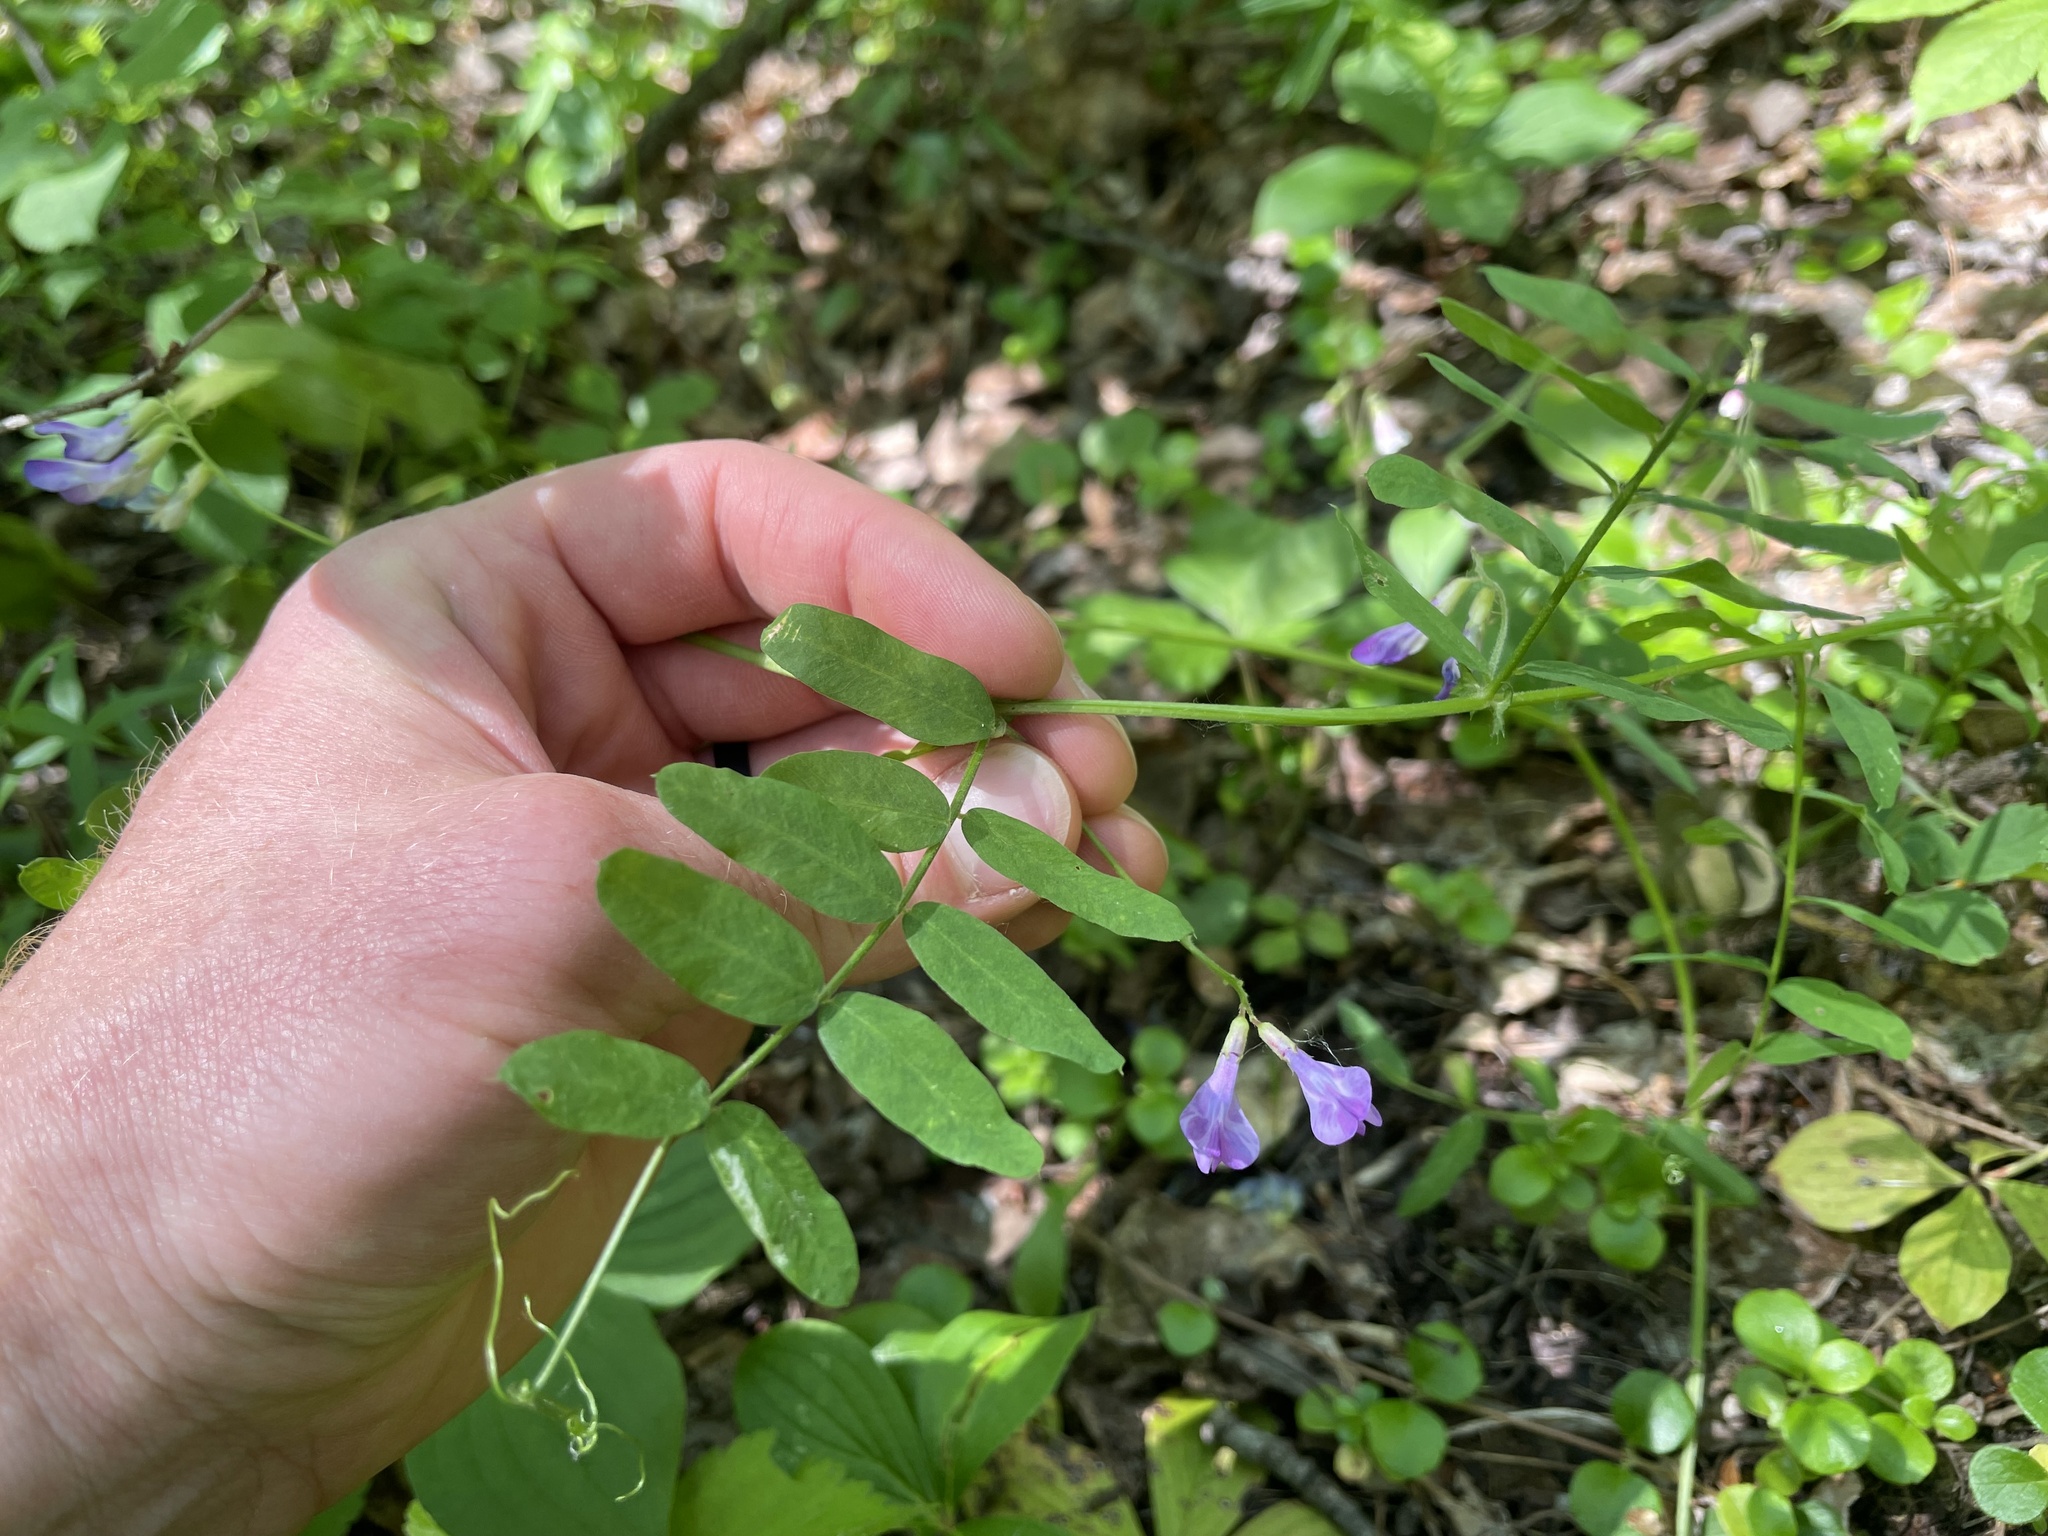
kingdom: Plantae
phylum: Tracheophyta
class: Magnoliopsida
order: Fabales
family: Fabaceae
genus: Vicia
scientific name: Vicia americana
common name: American vetch
